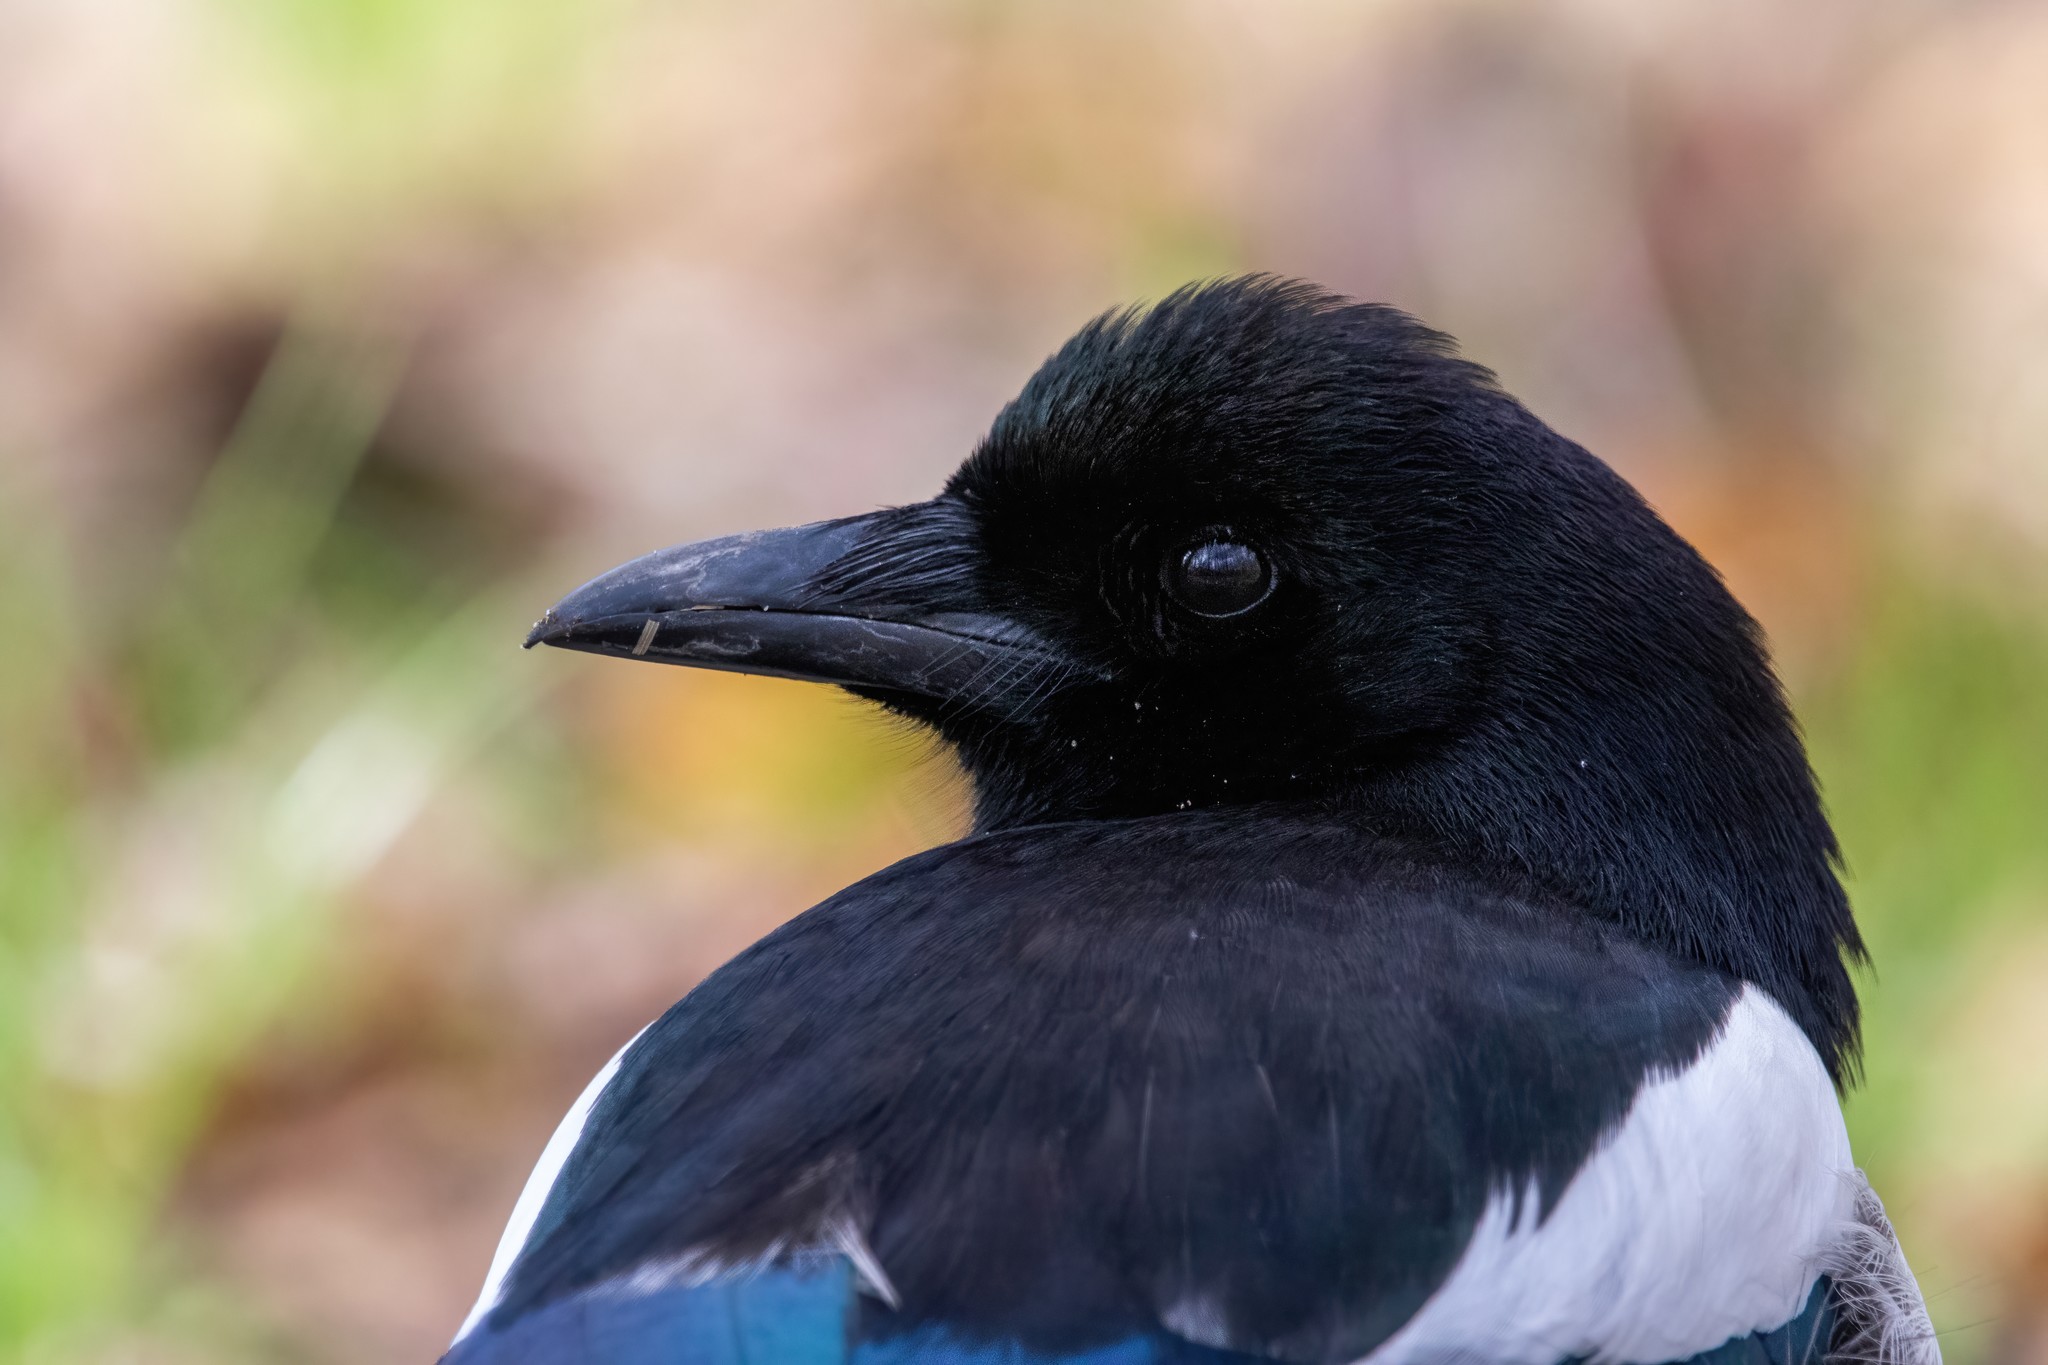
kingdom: Animalia
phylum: Chordata
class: Aves
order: Passeriformes
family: Corvidae
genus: Pica
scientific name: Pica pica
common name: Eurasian magpie
